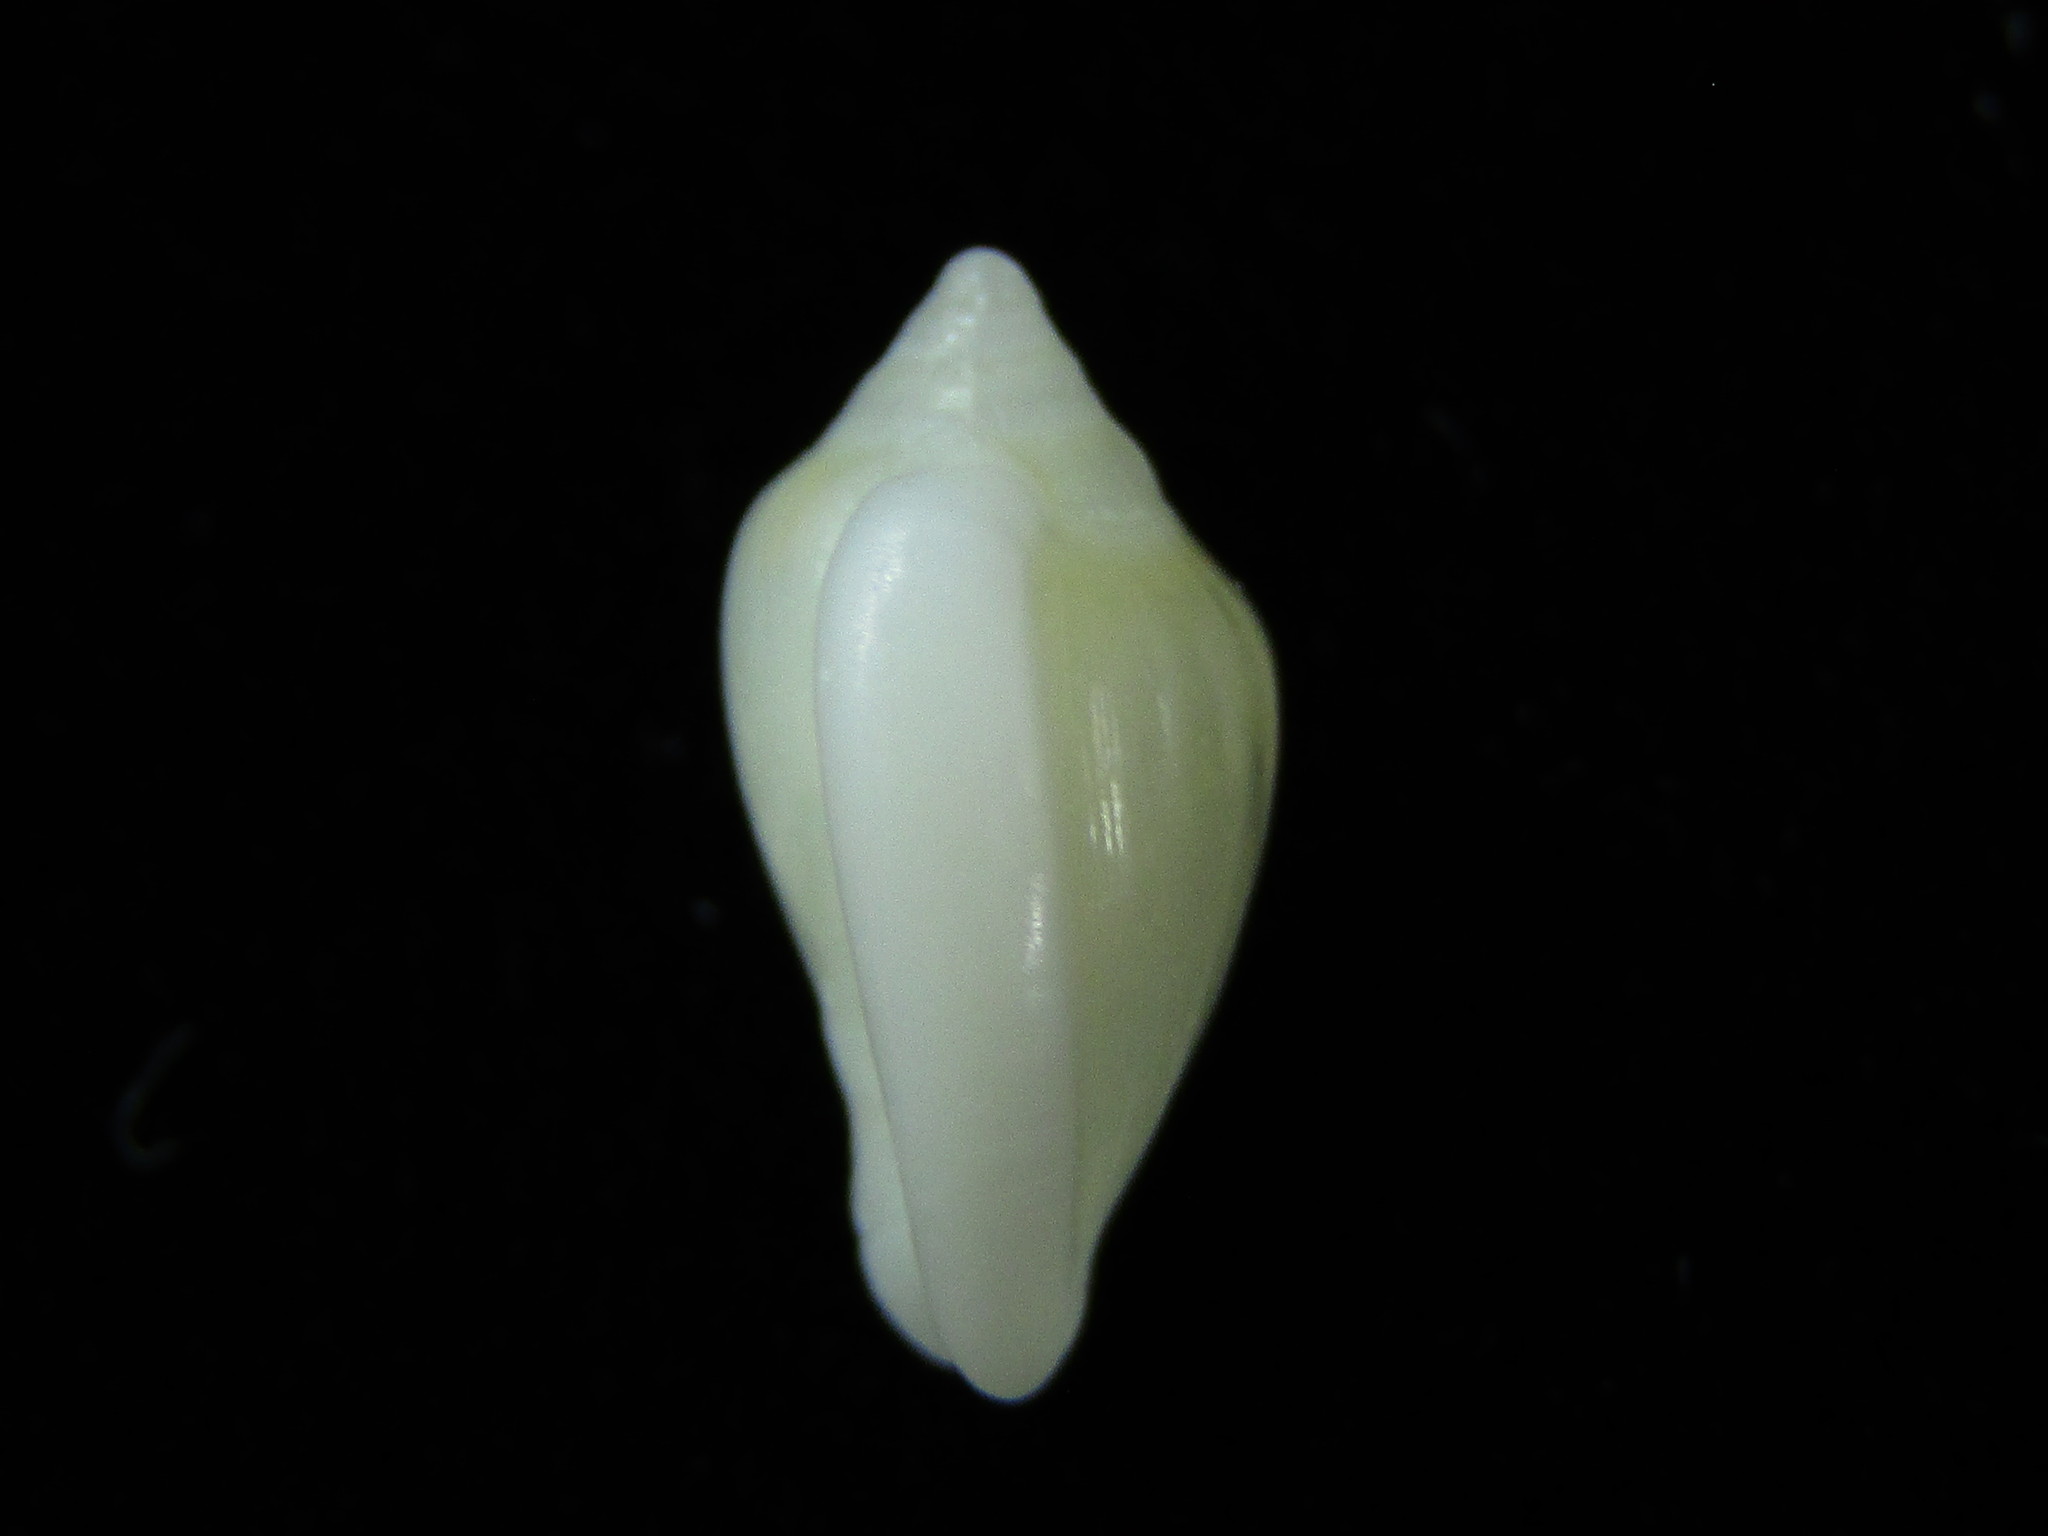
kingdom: Animalia
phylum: Mollusca
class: Gastropoda
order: Neogastropoda
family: Marginellidae
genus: Mesoginella
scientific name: Mesoginella vailei
